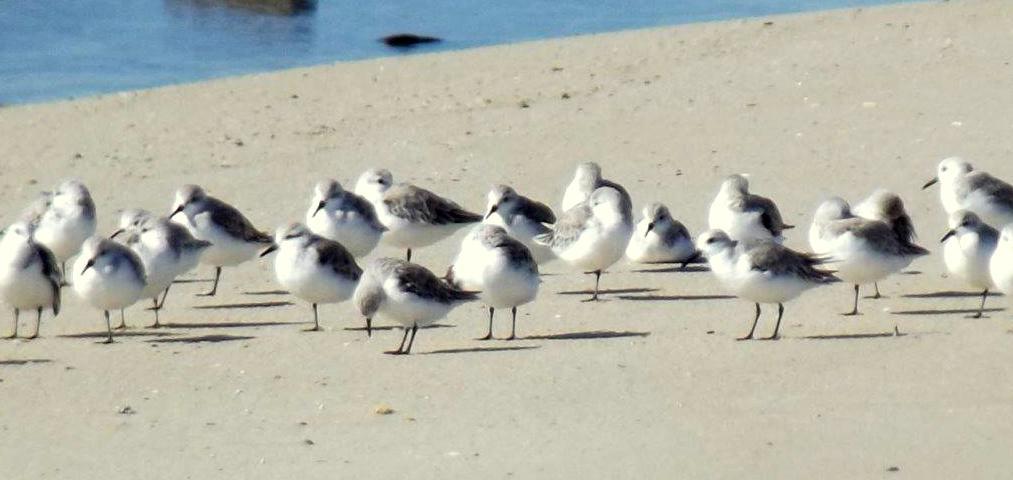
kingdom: Animalia
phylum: Chordata
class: Aves
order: Charadriiformes
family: Scolopacidae
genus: Calidris
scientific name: Calidris alba
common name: Sanderling
